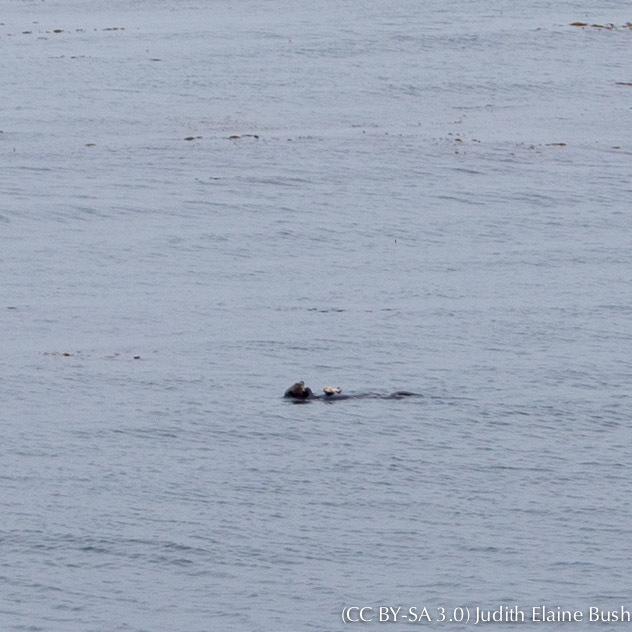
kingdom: Animalia
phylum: Chordata
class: Mammalia
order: Carnivora
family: Mustelidae
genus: Enhydra
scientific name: Enhydra lutris
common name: Sea otter
